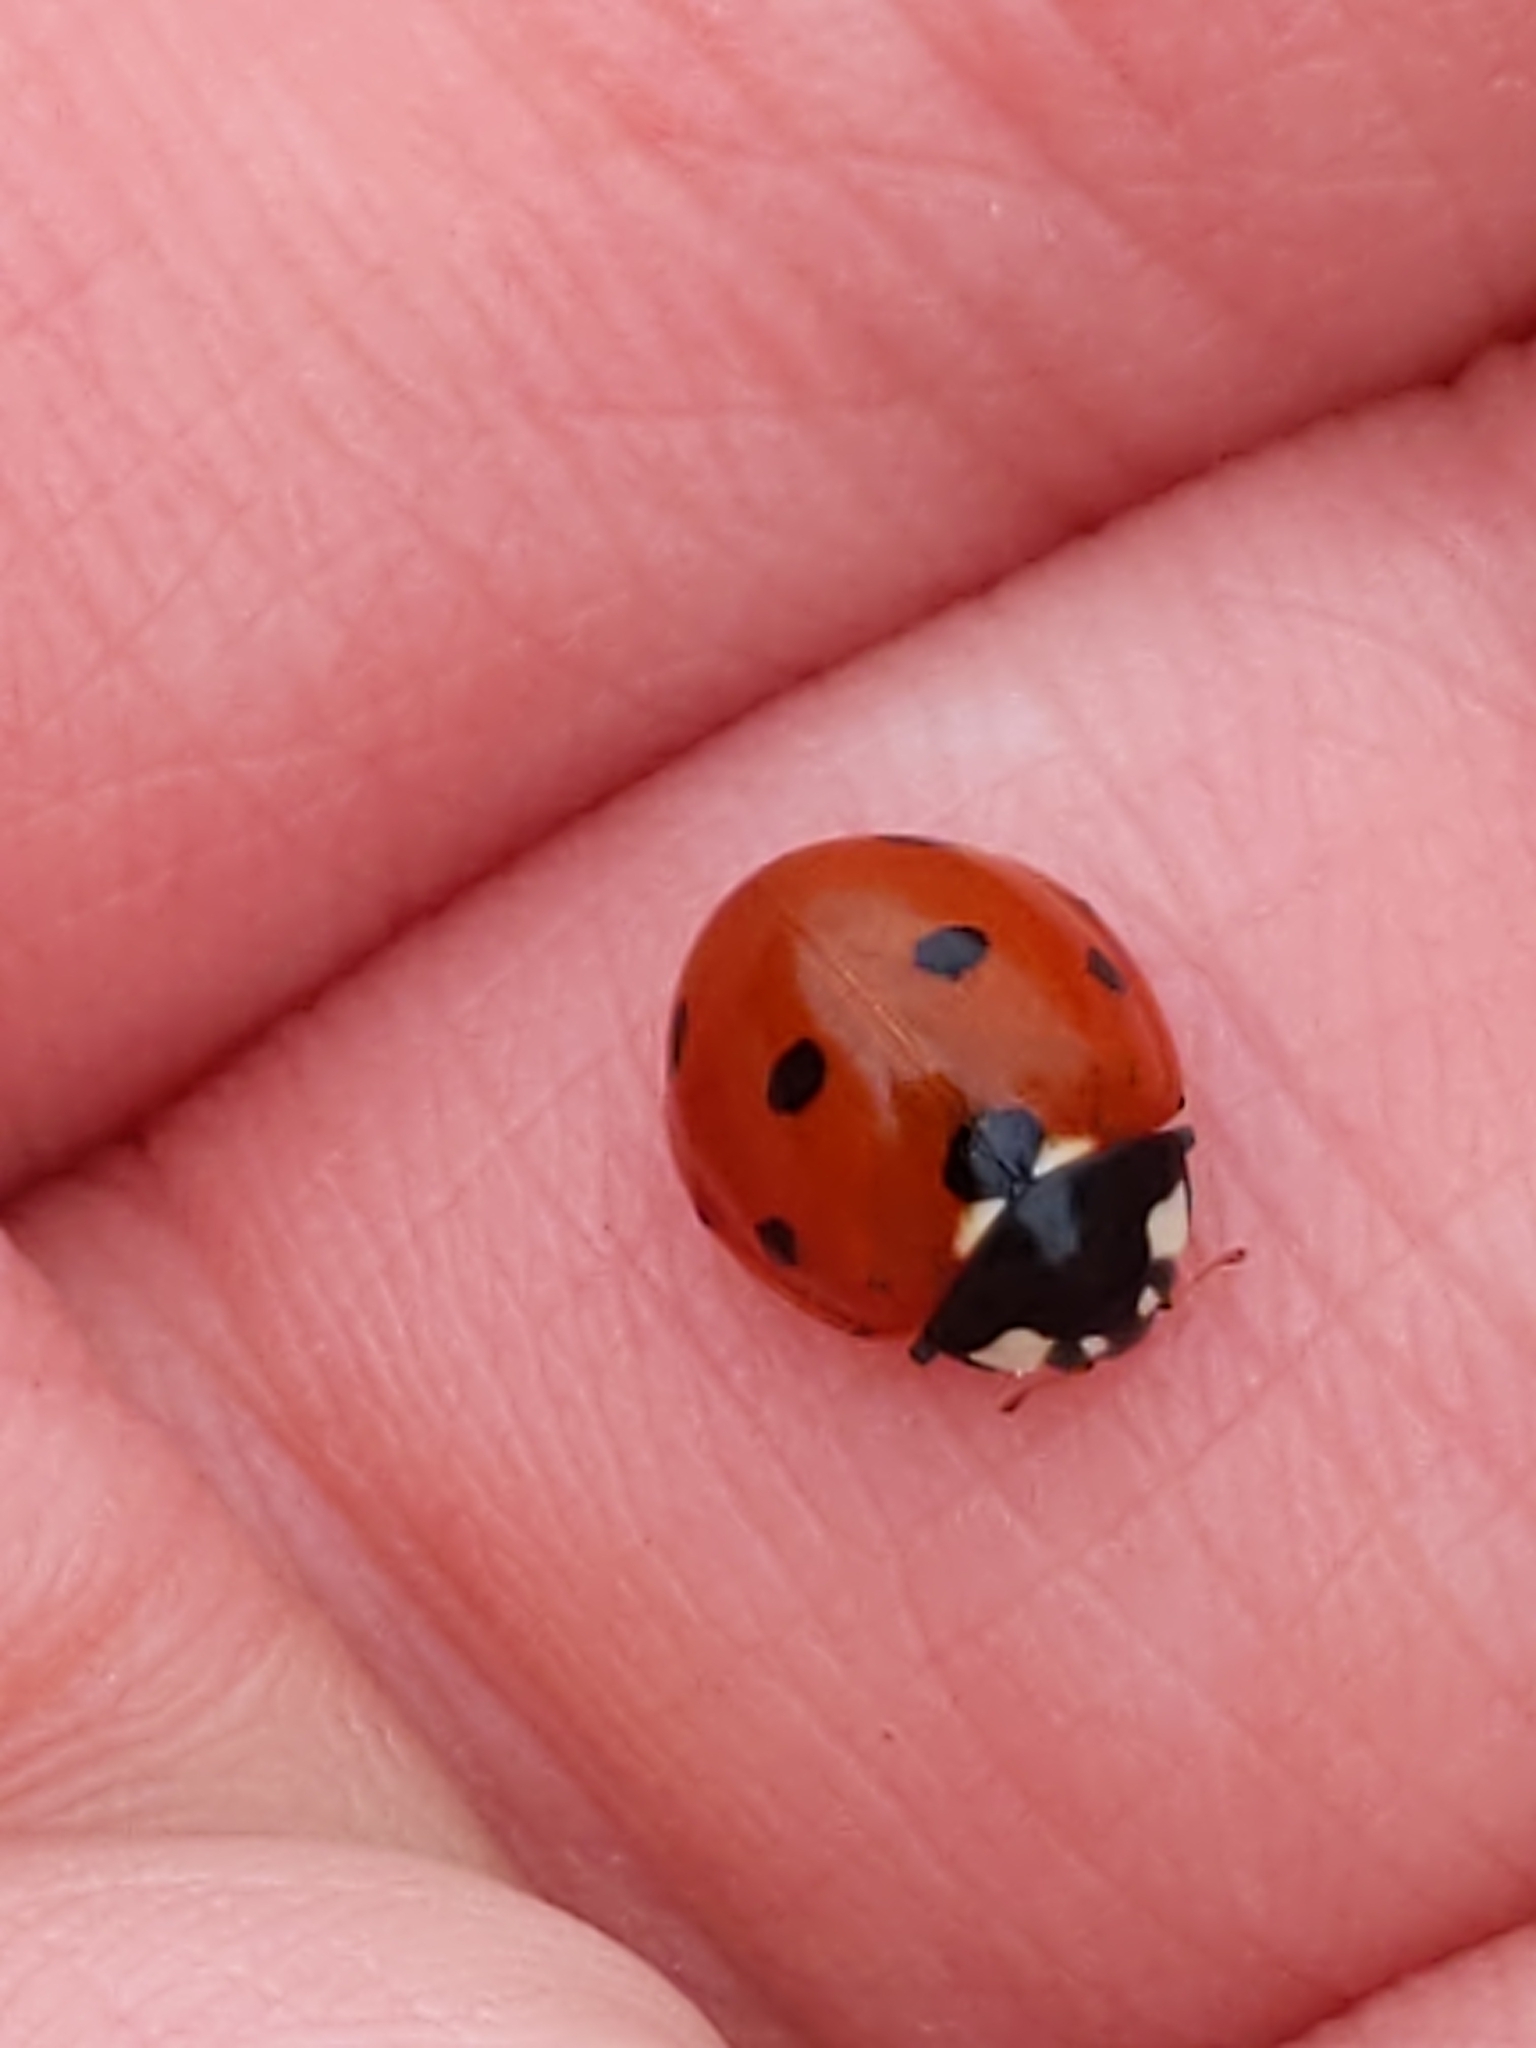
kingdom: Animalia
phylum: Arthropoda
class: Insecta
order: Coleoptera
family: Coccinellidae
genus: Coccinella
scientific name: Coccinella septempunctata
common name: Sevenspotted lady beetle
